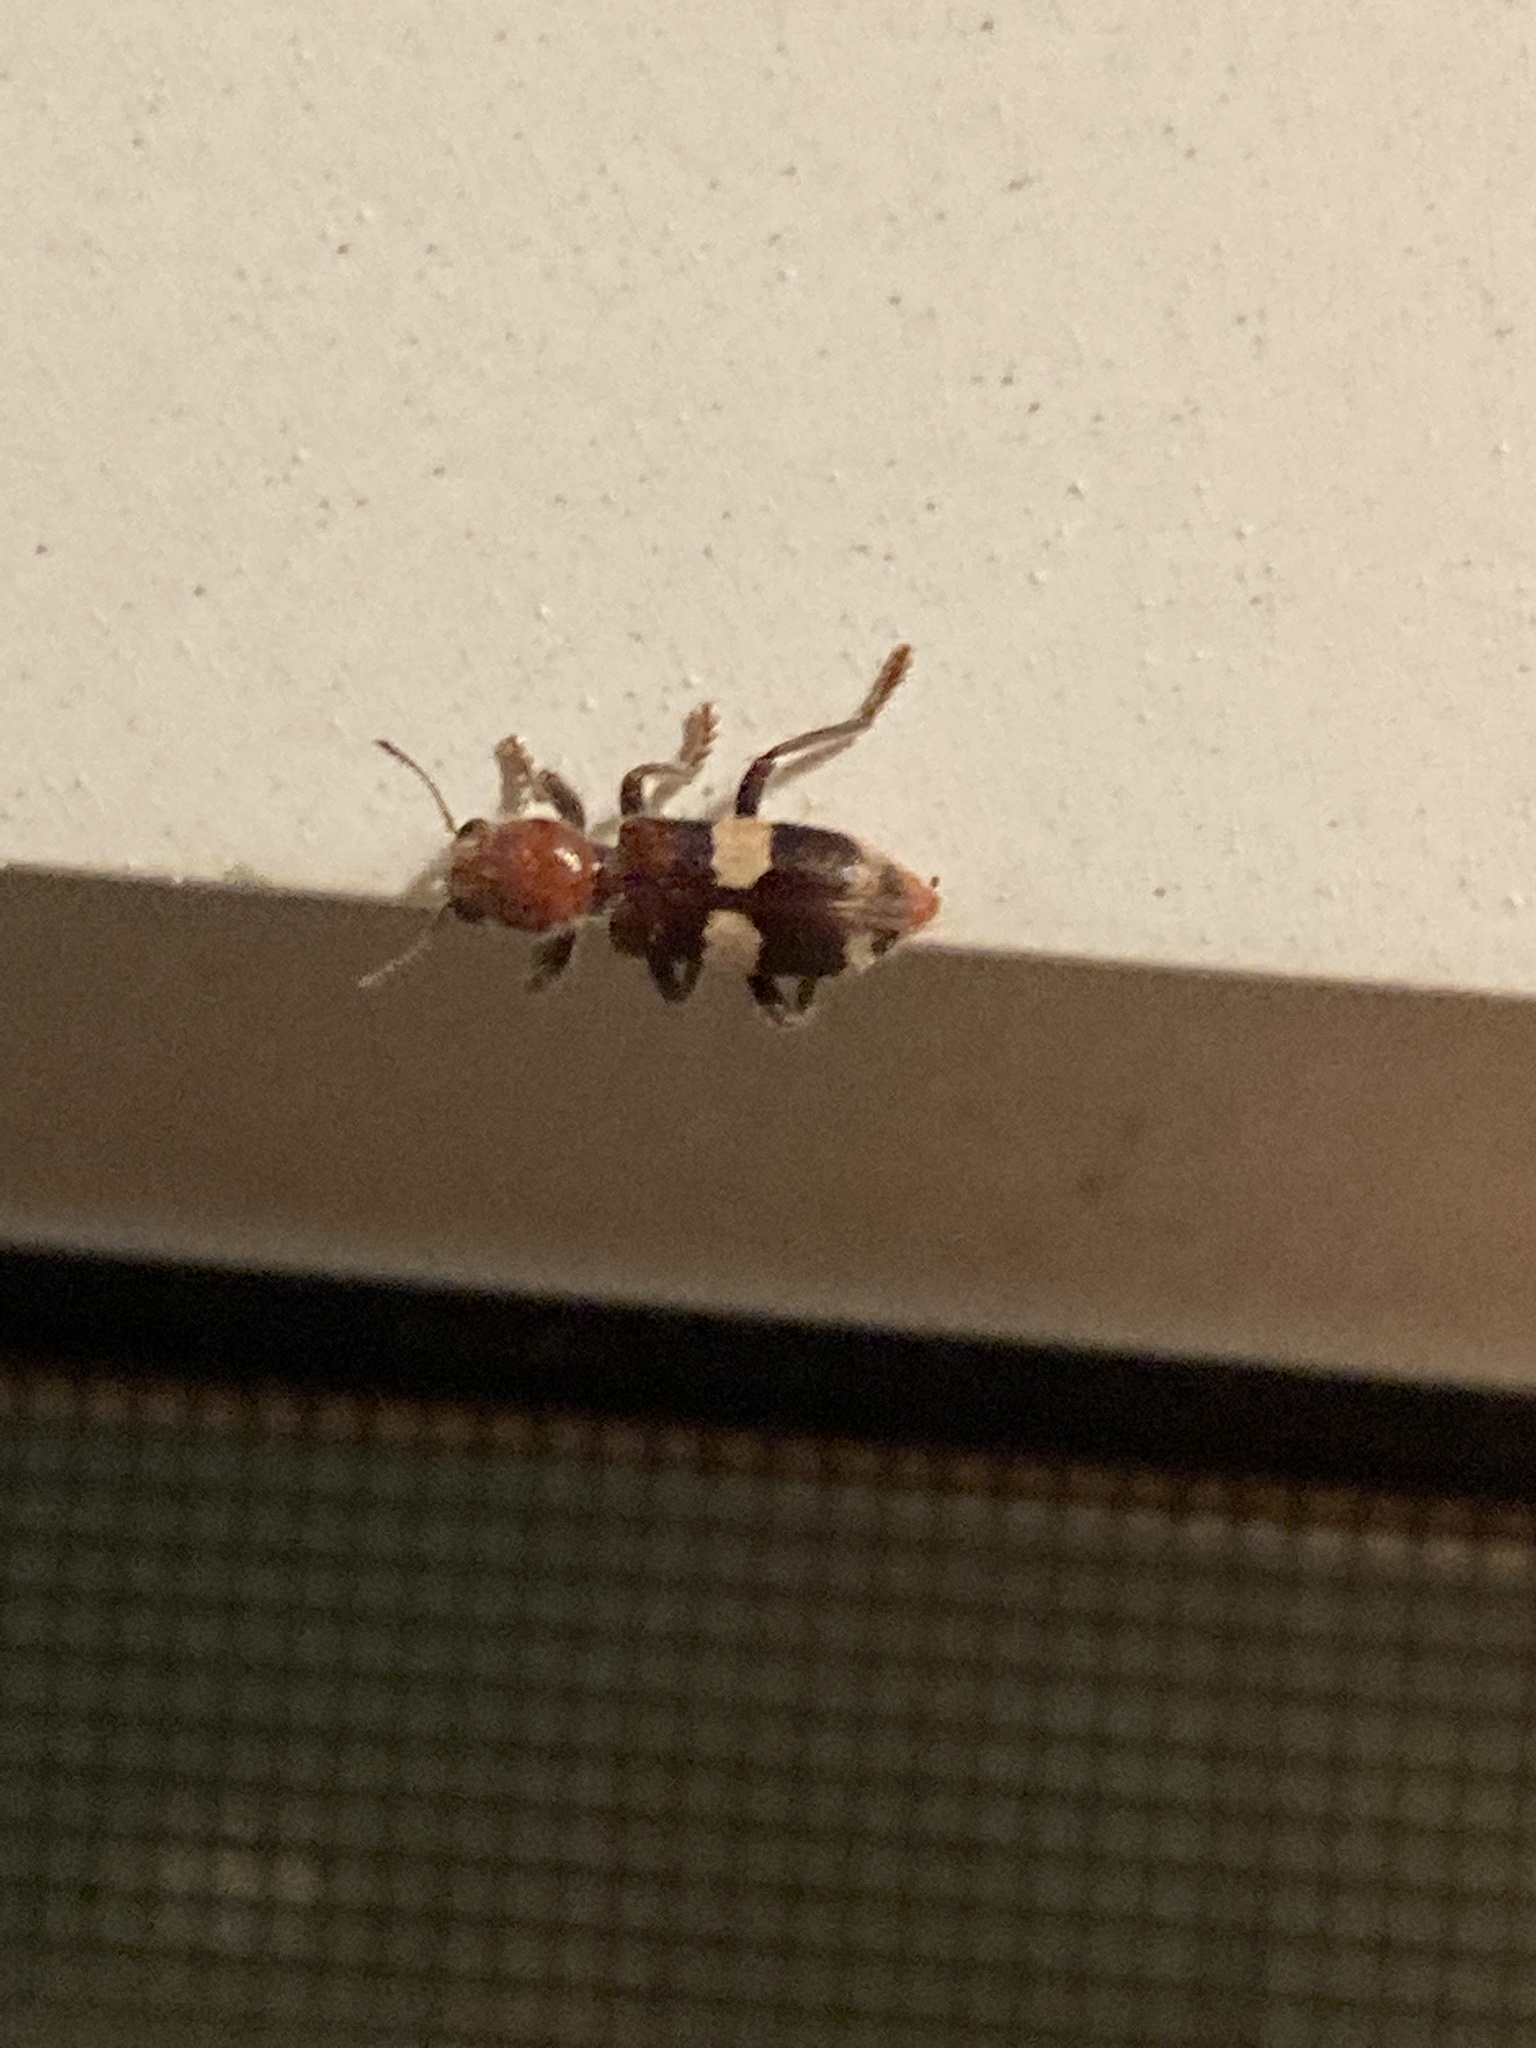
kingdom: Animalia
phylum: Arthropoda
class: Insecta
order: Coleoptera
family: Cleridae
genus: Enoclerus
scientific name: Enoclerus quadrisignatus
